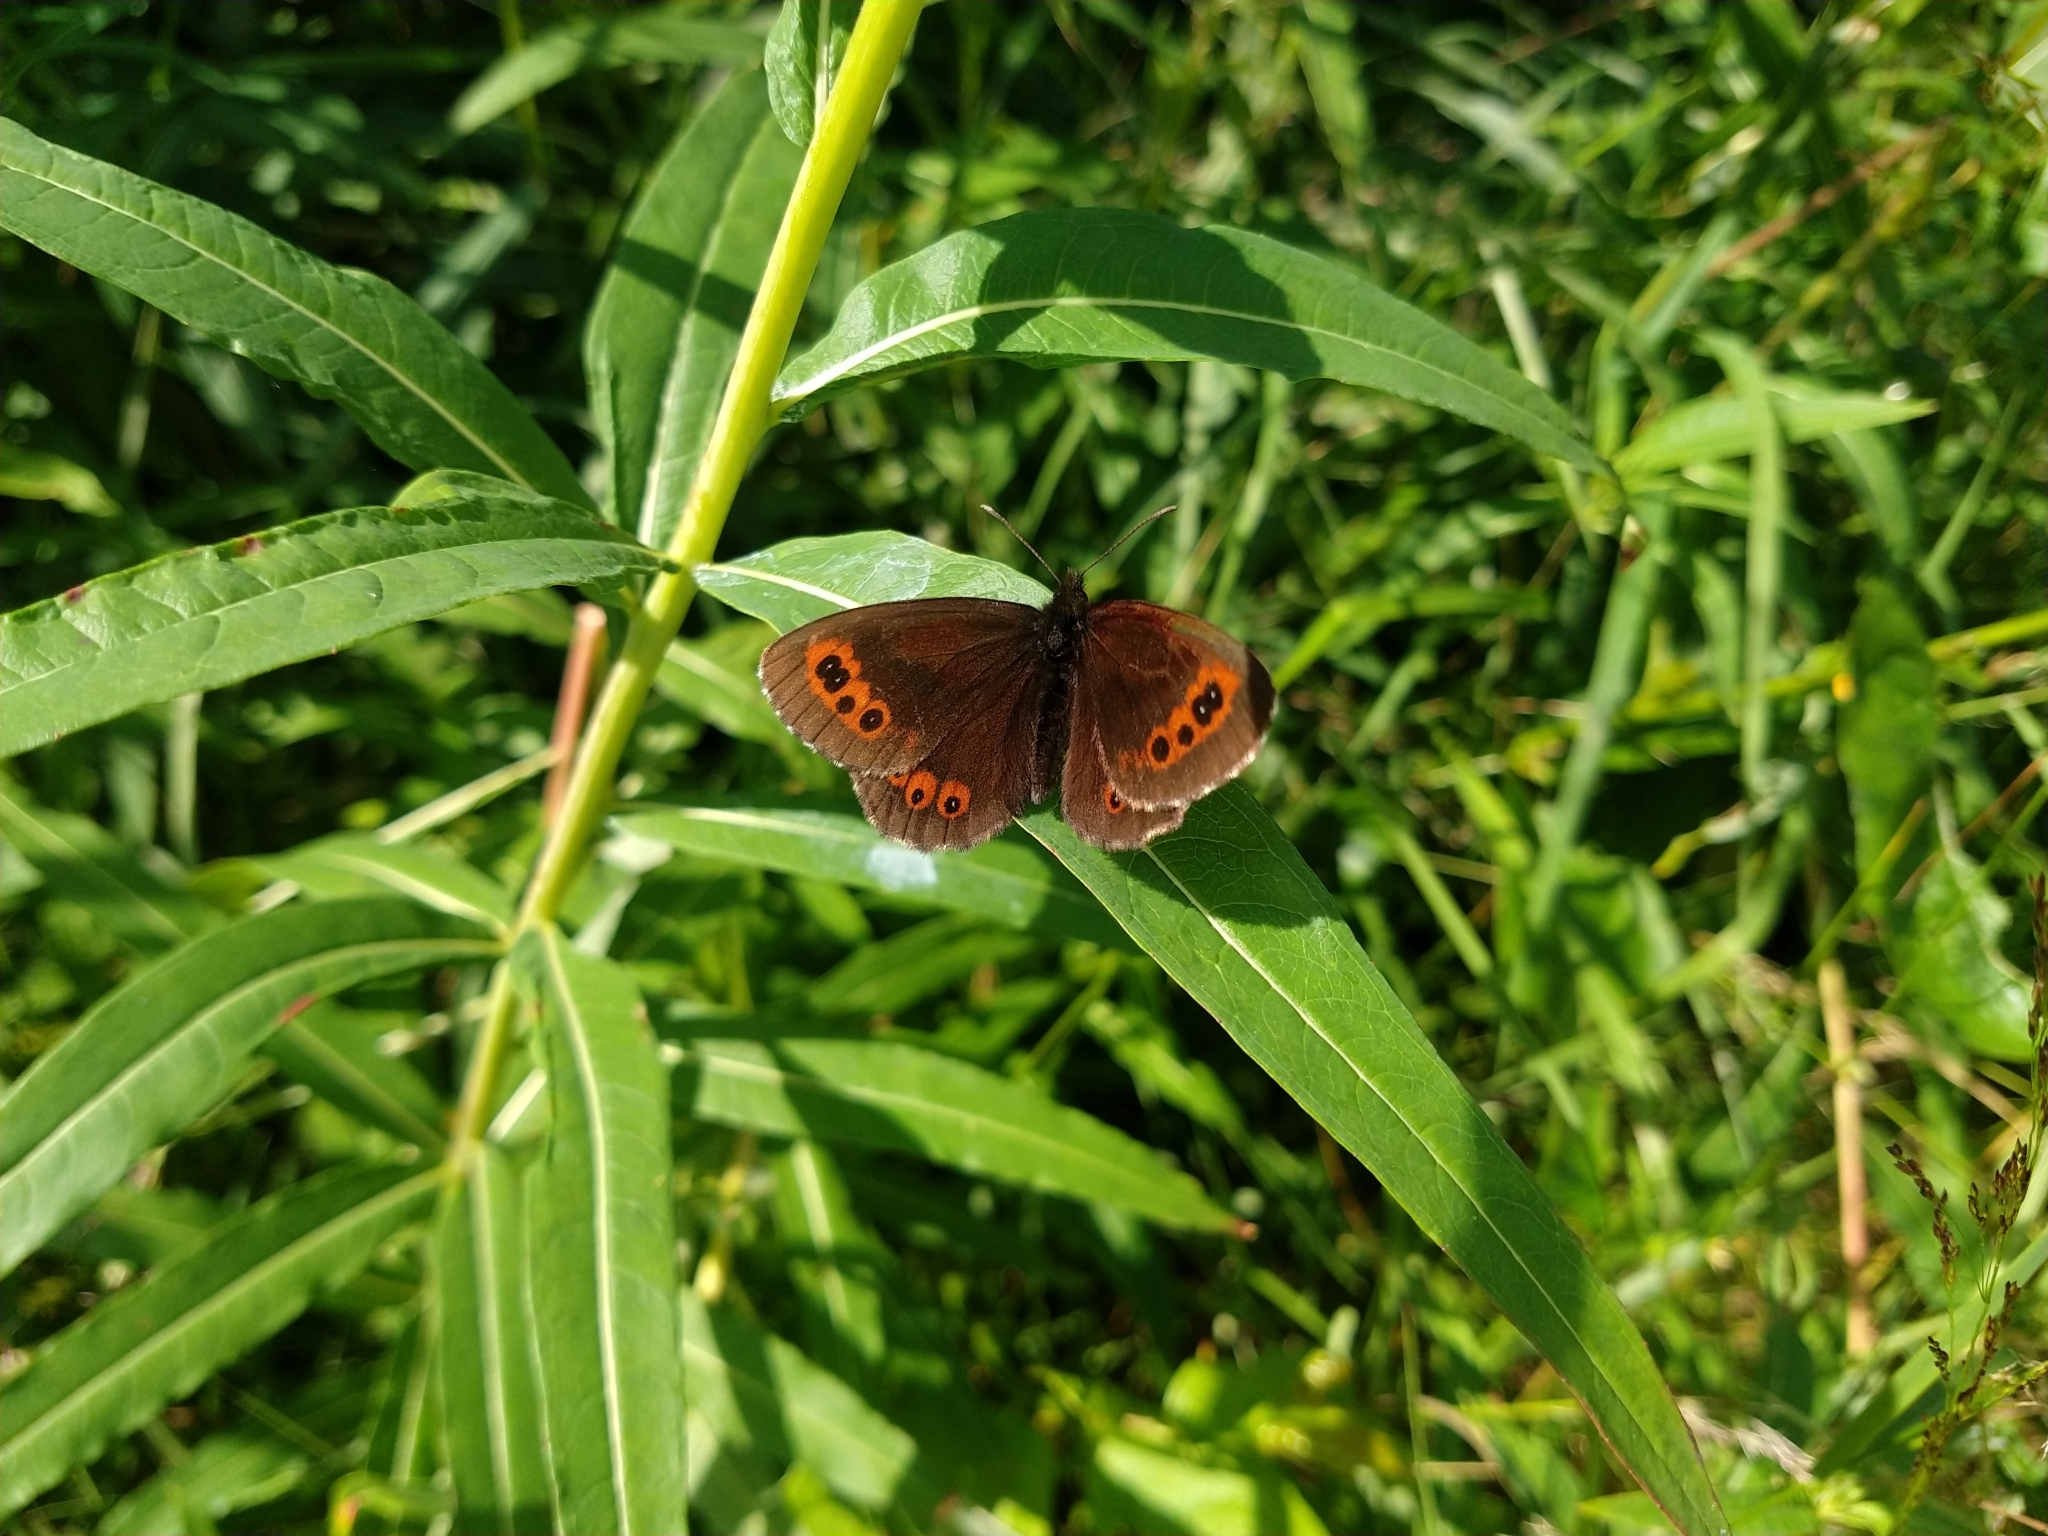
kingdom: Animalia
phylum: Arthropoda
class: Insecta
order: Lepidoptera
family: Nymphalidae
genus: Erebia
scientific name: Erebia ligea
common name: Arran brown
